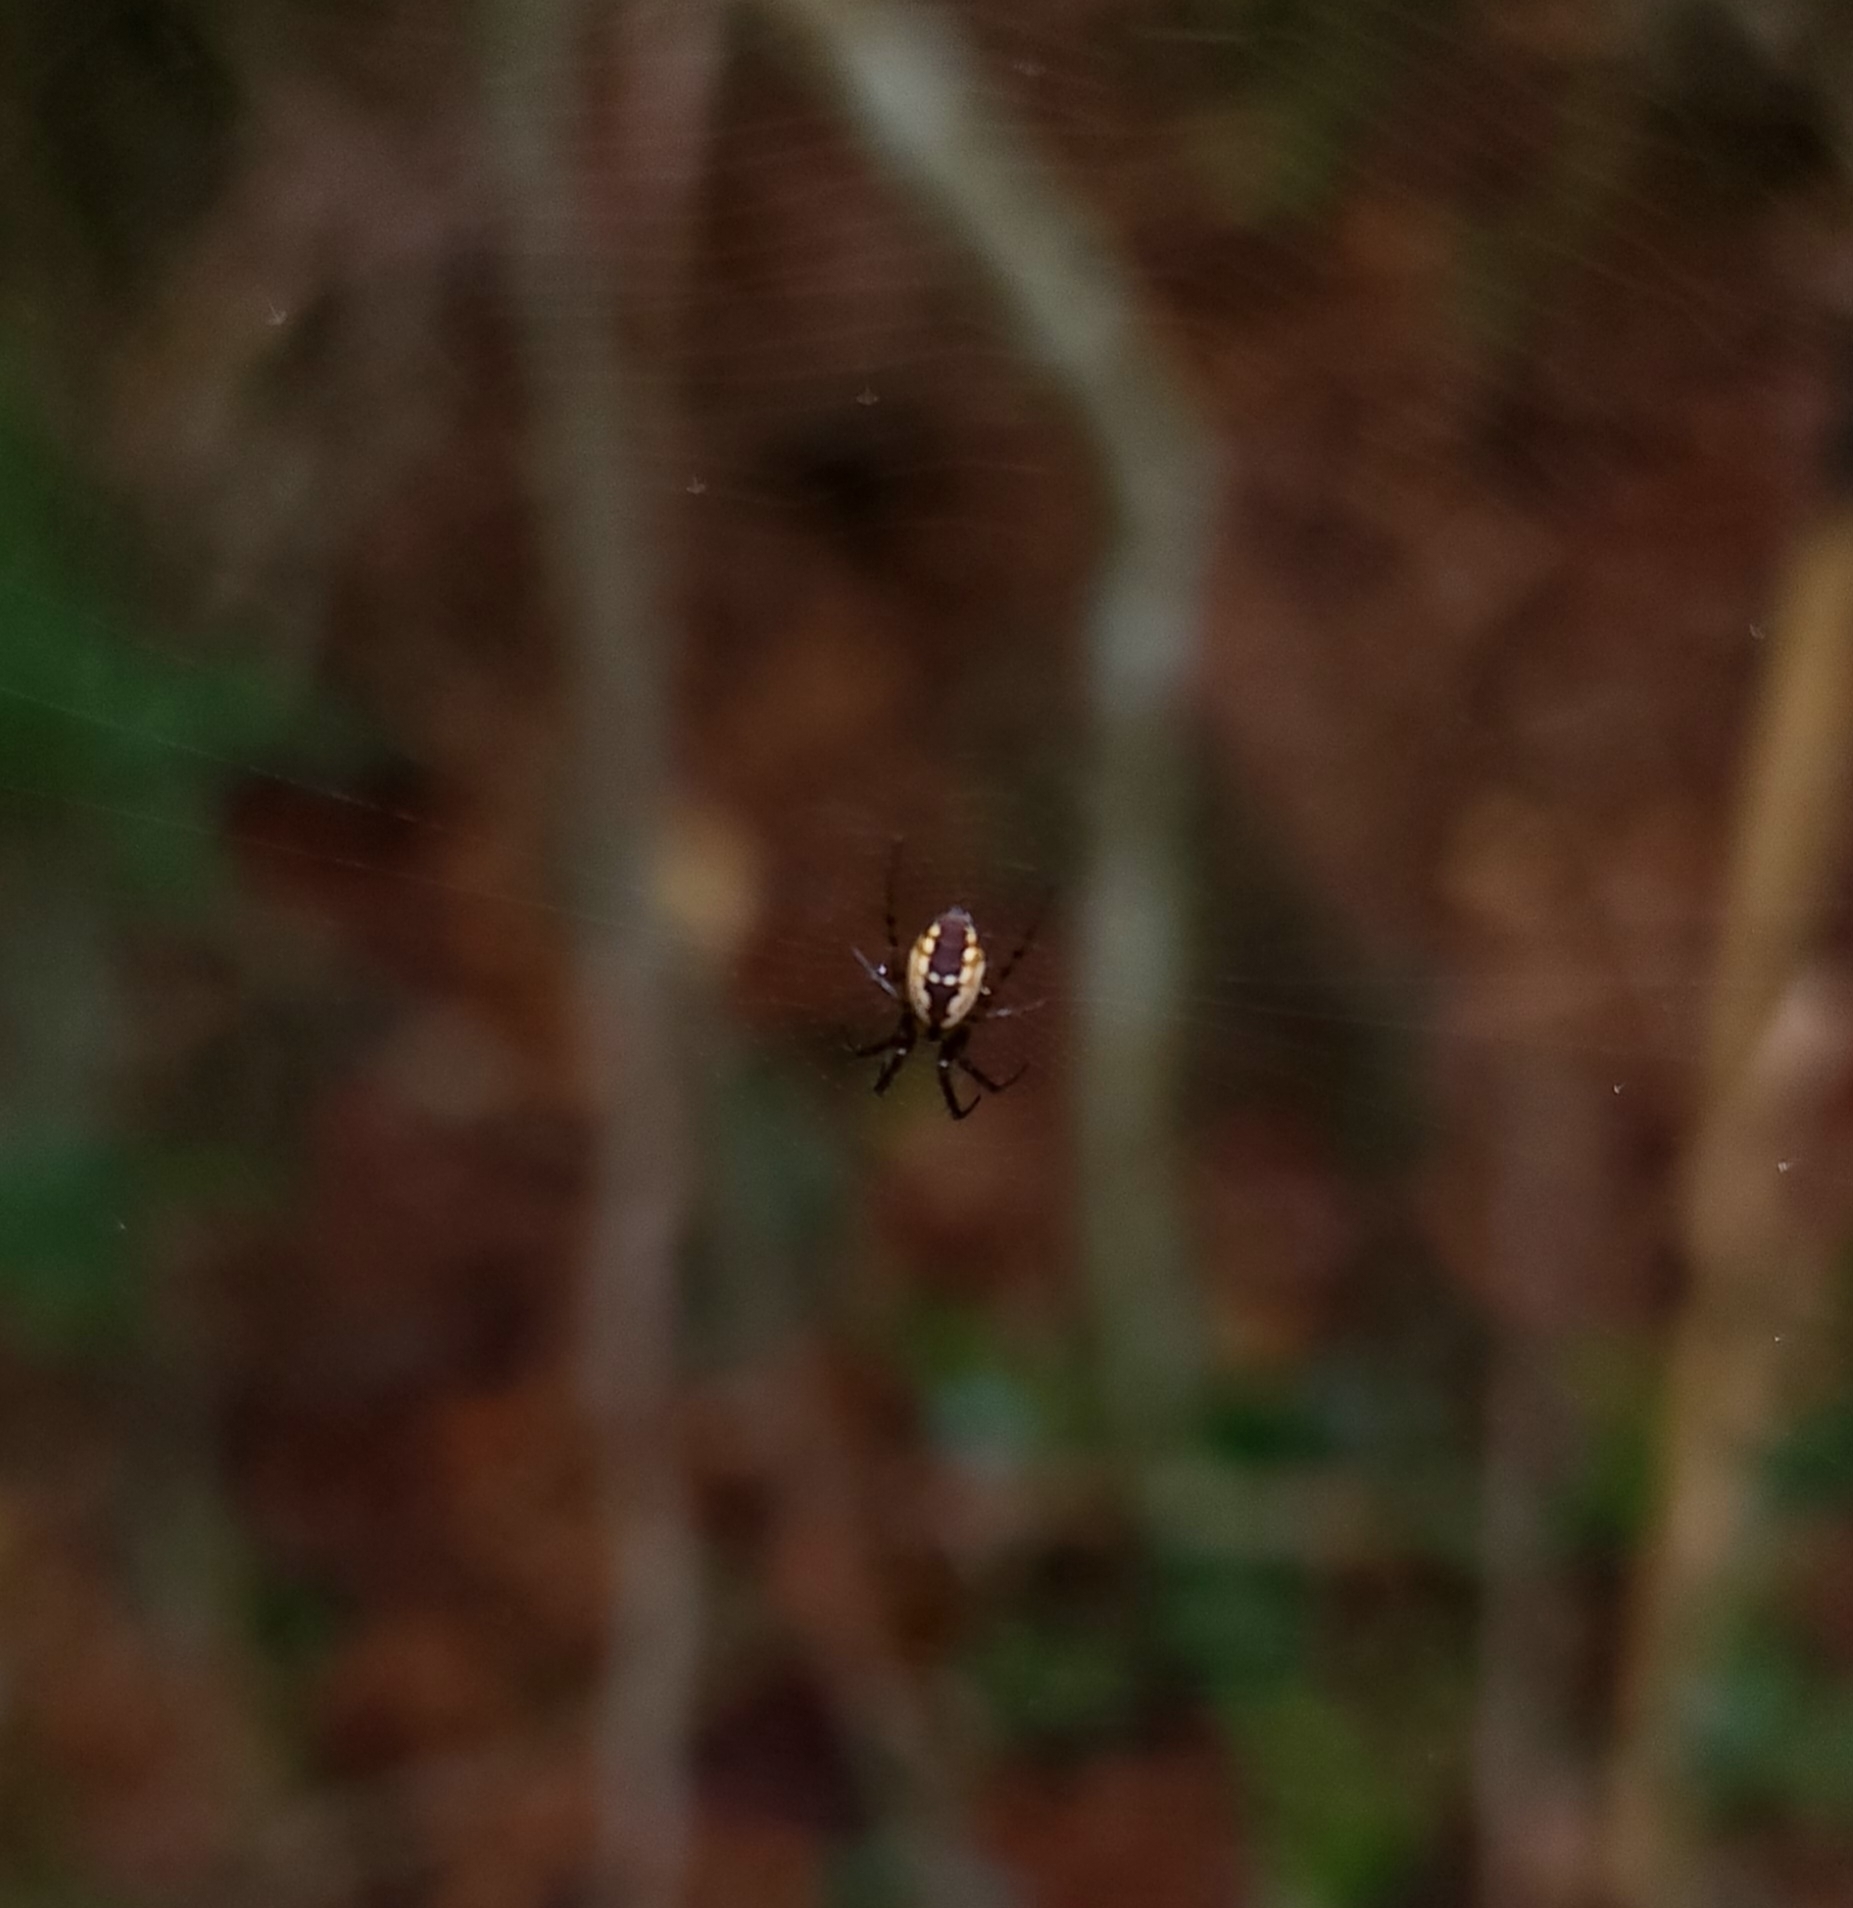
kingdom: Animalia
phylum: Arthropoda
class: Arachnida
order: Araneae
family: Araneidae
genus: Mangora
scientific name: Mangora placida
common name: Tuft-legged orbweaver
